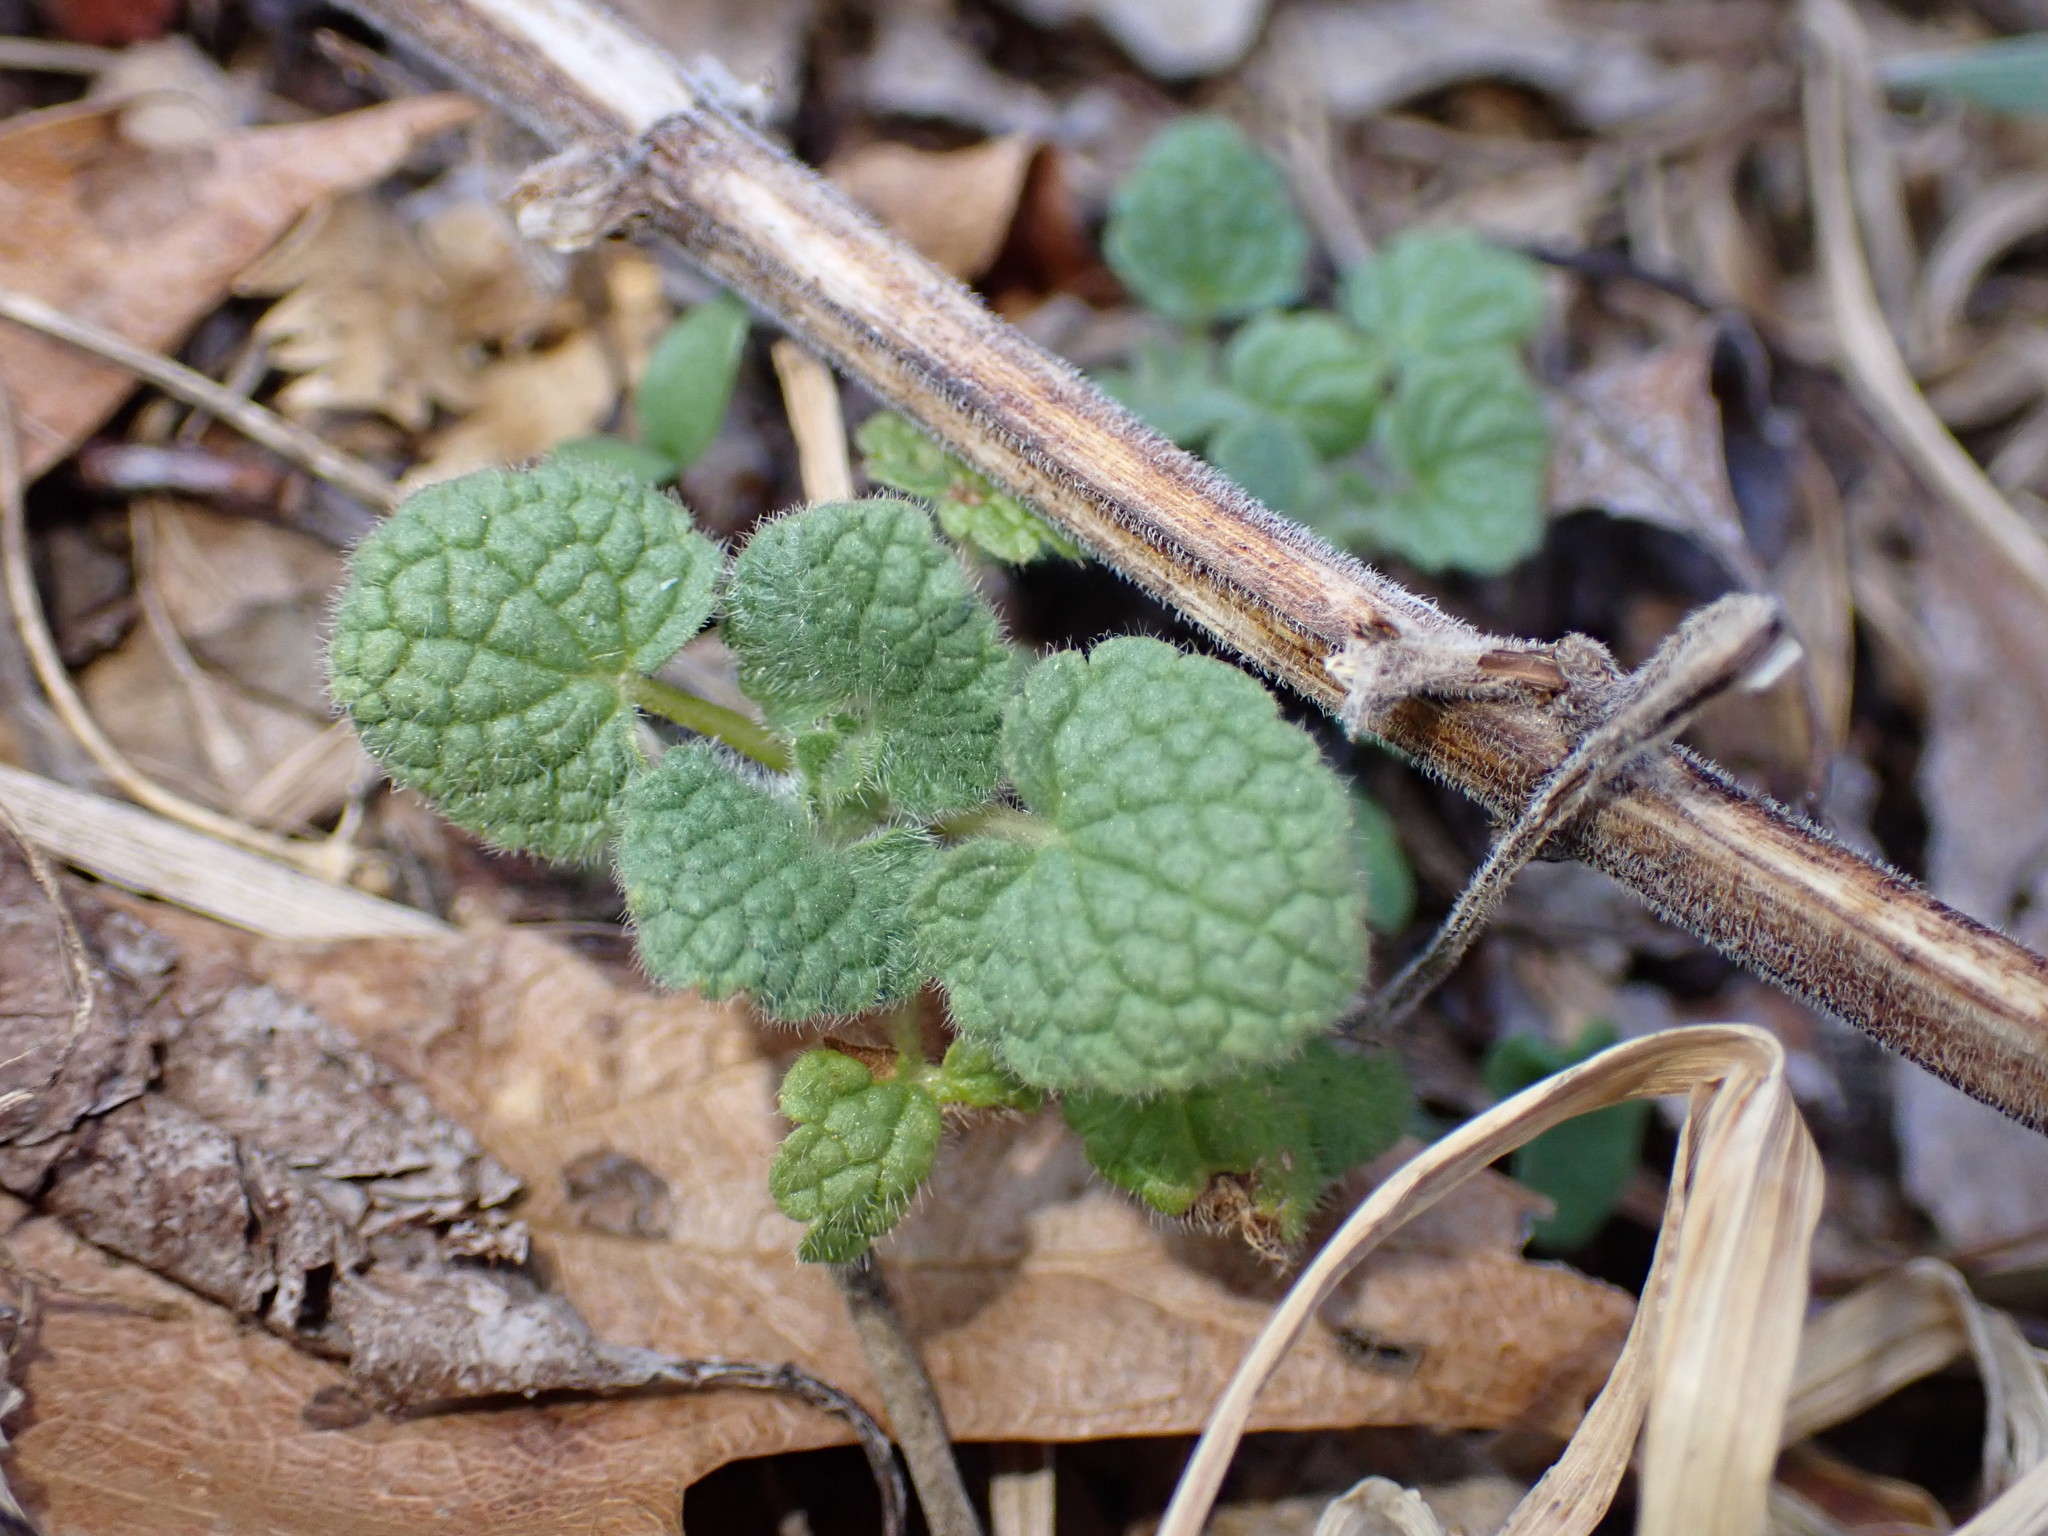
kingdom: Plantae
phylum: Tracheophyta
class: Magnoliopsida
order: Lamiales
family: Lamiaceae
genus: Lamium
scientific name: Lamium purpureum
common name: Red dead-nettle
